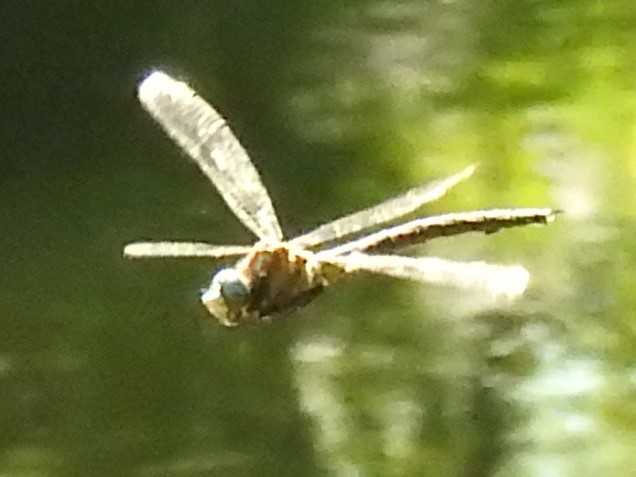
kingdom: Animalia
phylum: Arthropoda
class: Insecta
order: Odonata
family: Aeshnidae
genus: Nasiaeschna
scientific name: Nasiaeschna pentacantha
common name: Cyrano darner
